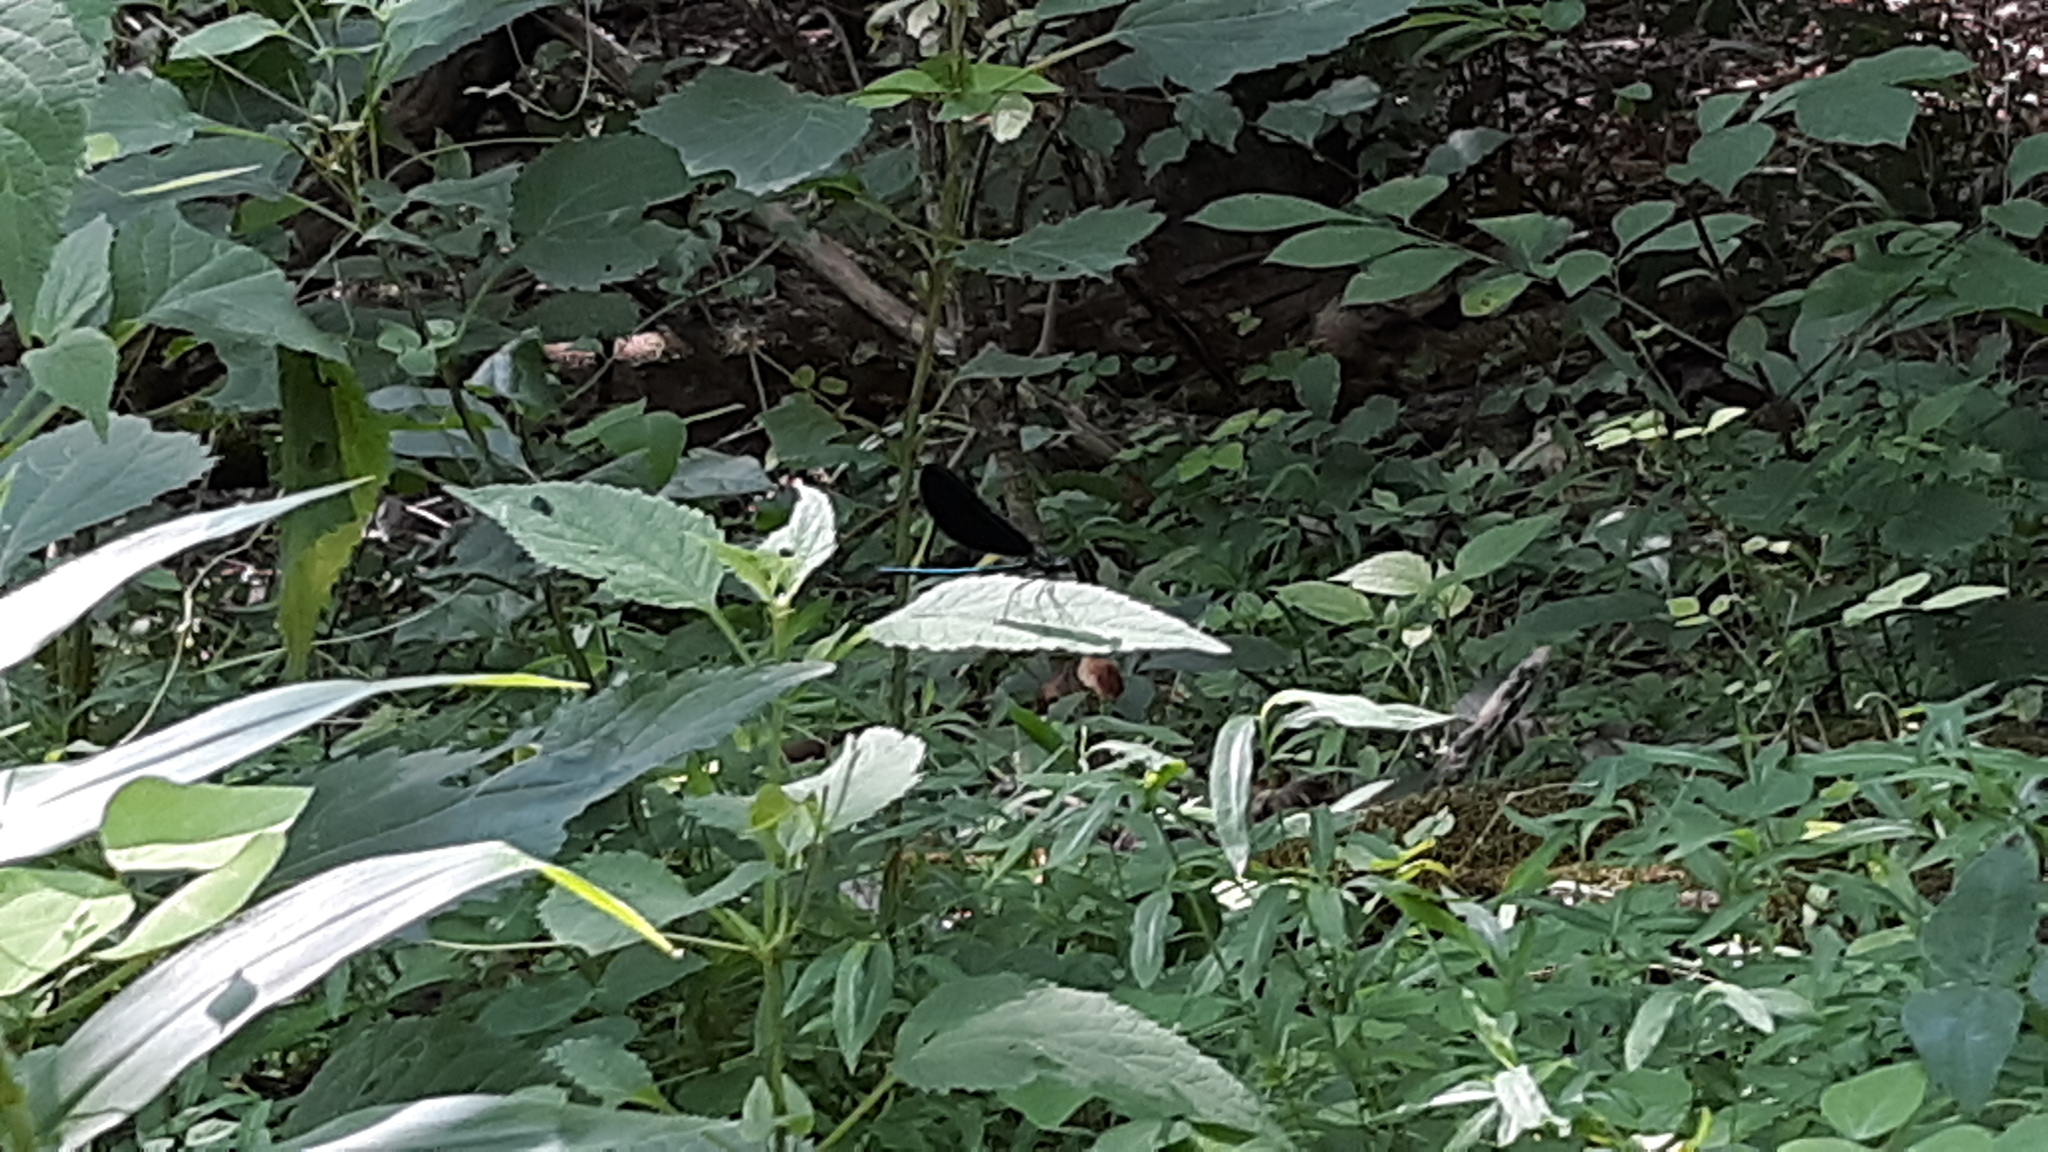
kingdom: Animalia
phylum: Arthropoda
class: Insecta
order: Odonata
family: Calopterygidae
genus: Calopteryx
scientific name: Calopteryx maculata
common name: Ebony jewelwing
